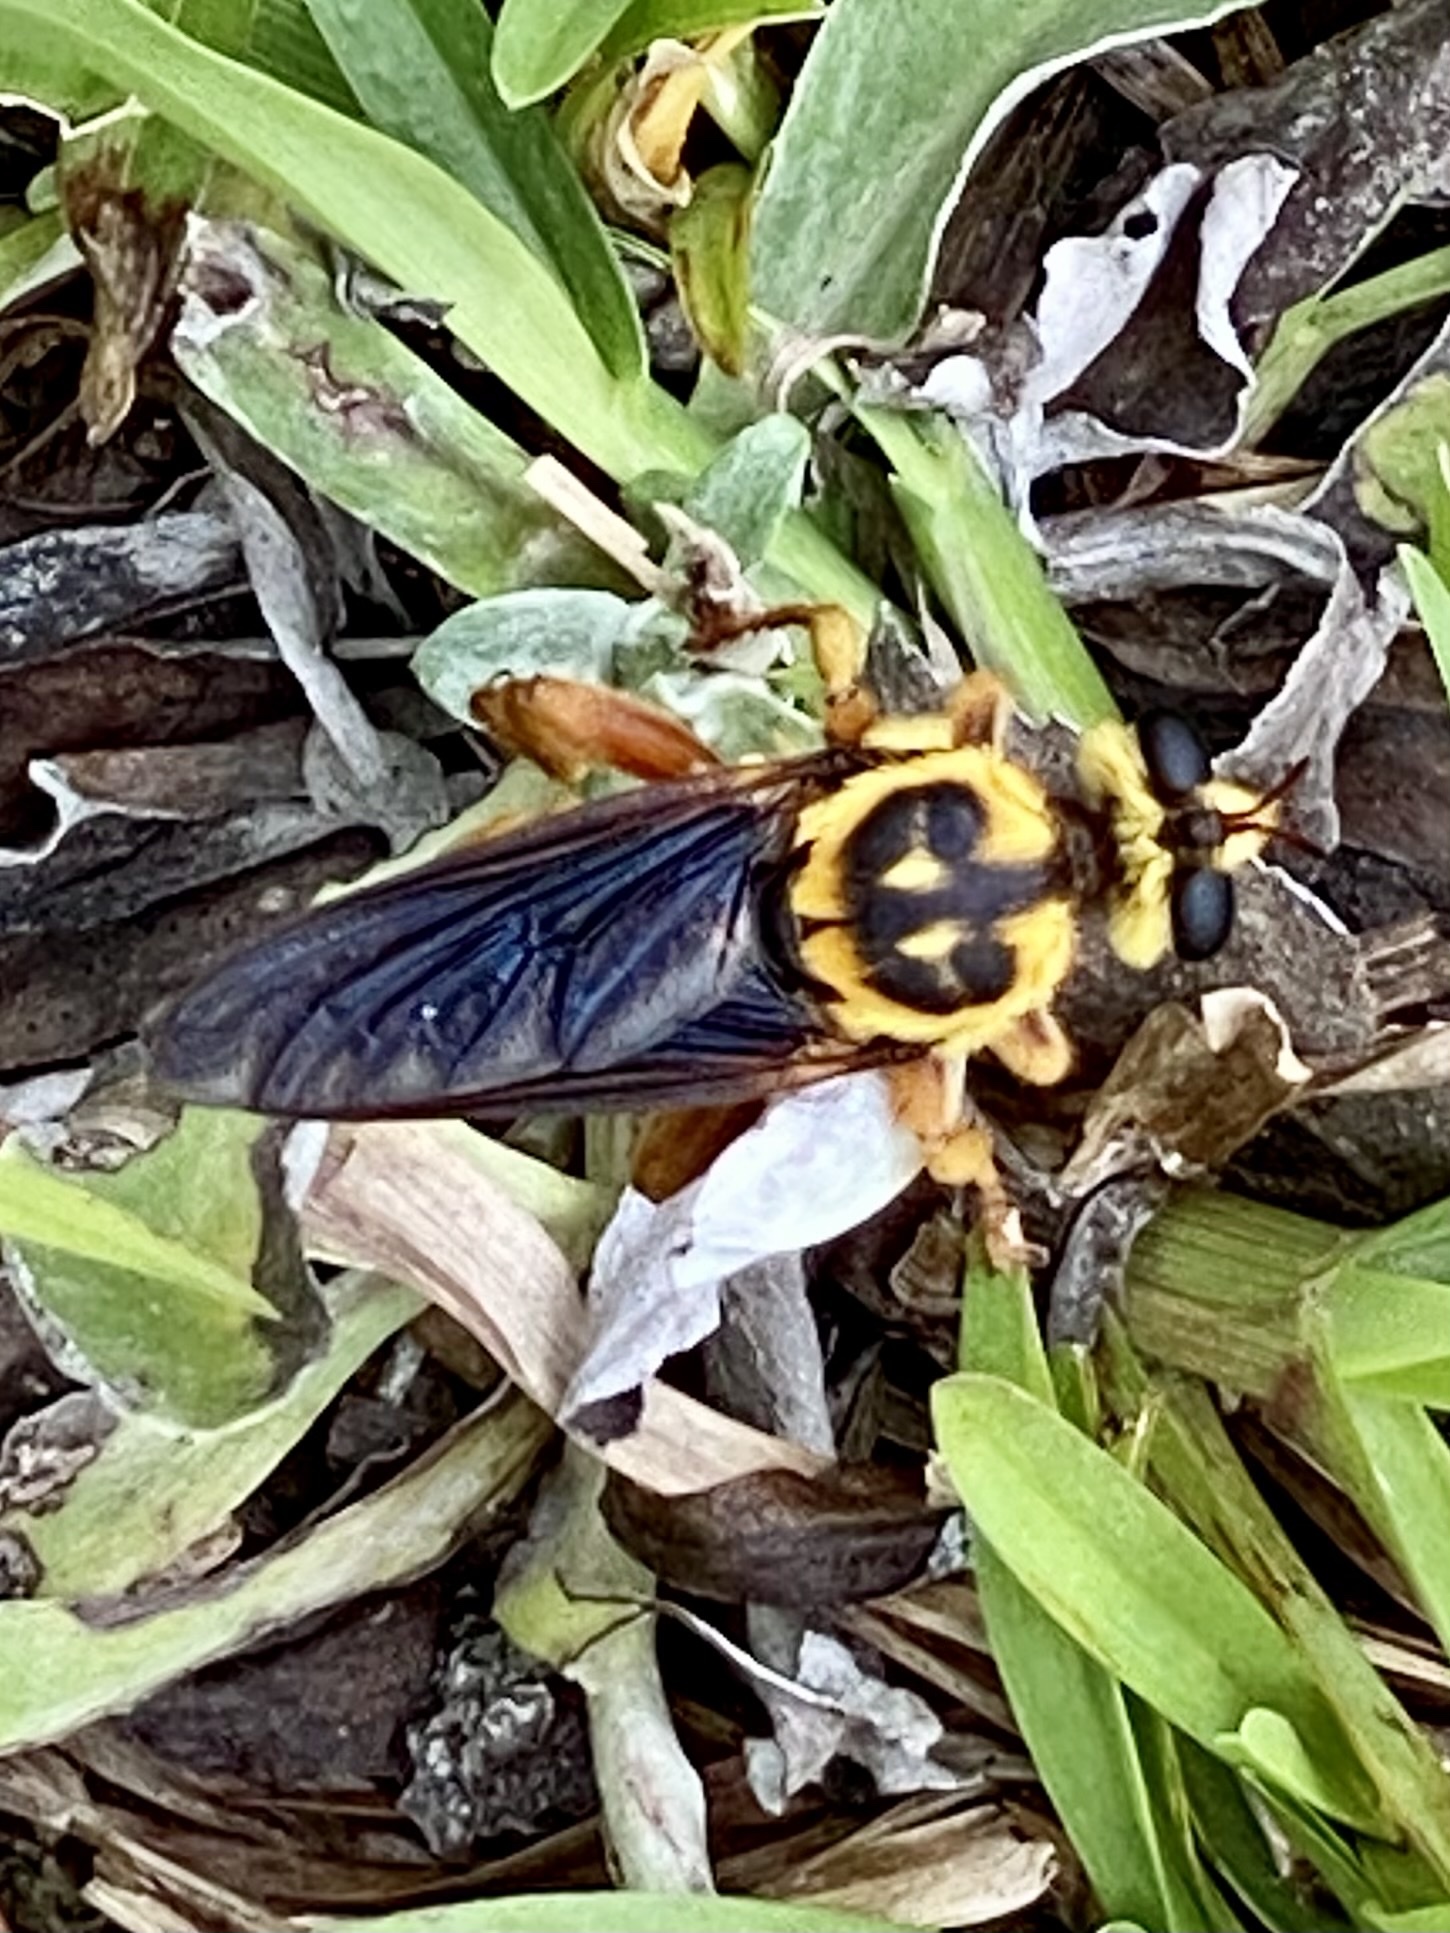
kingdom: Animalia
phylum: Arthropoda
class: Insecta
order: Diptera
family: Asilidae
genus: Laphria
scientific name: Laphria saffrana
